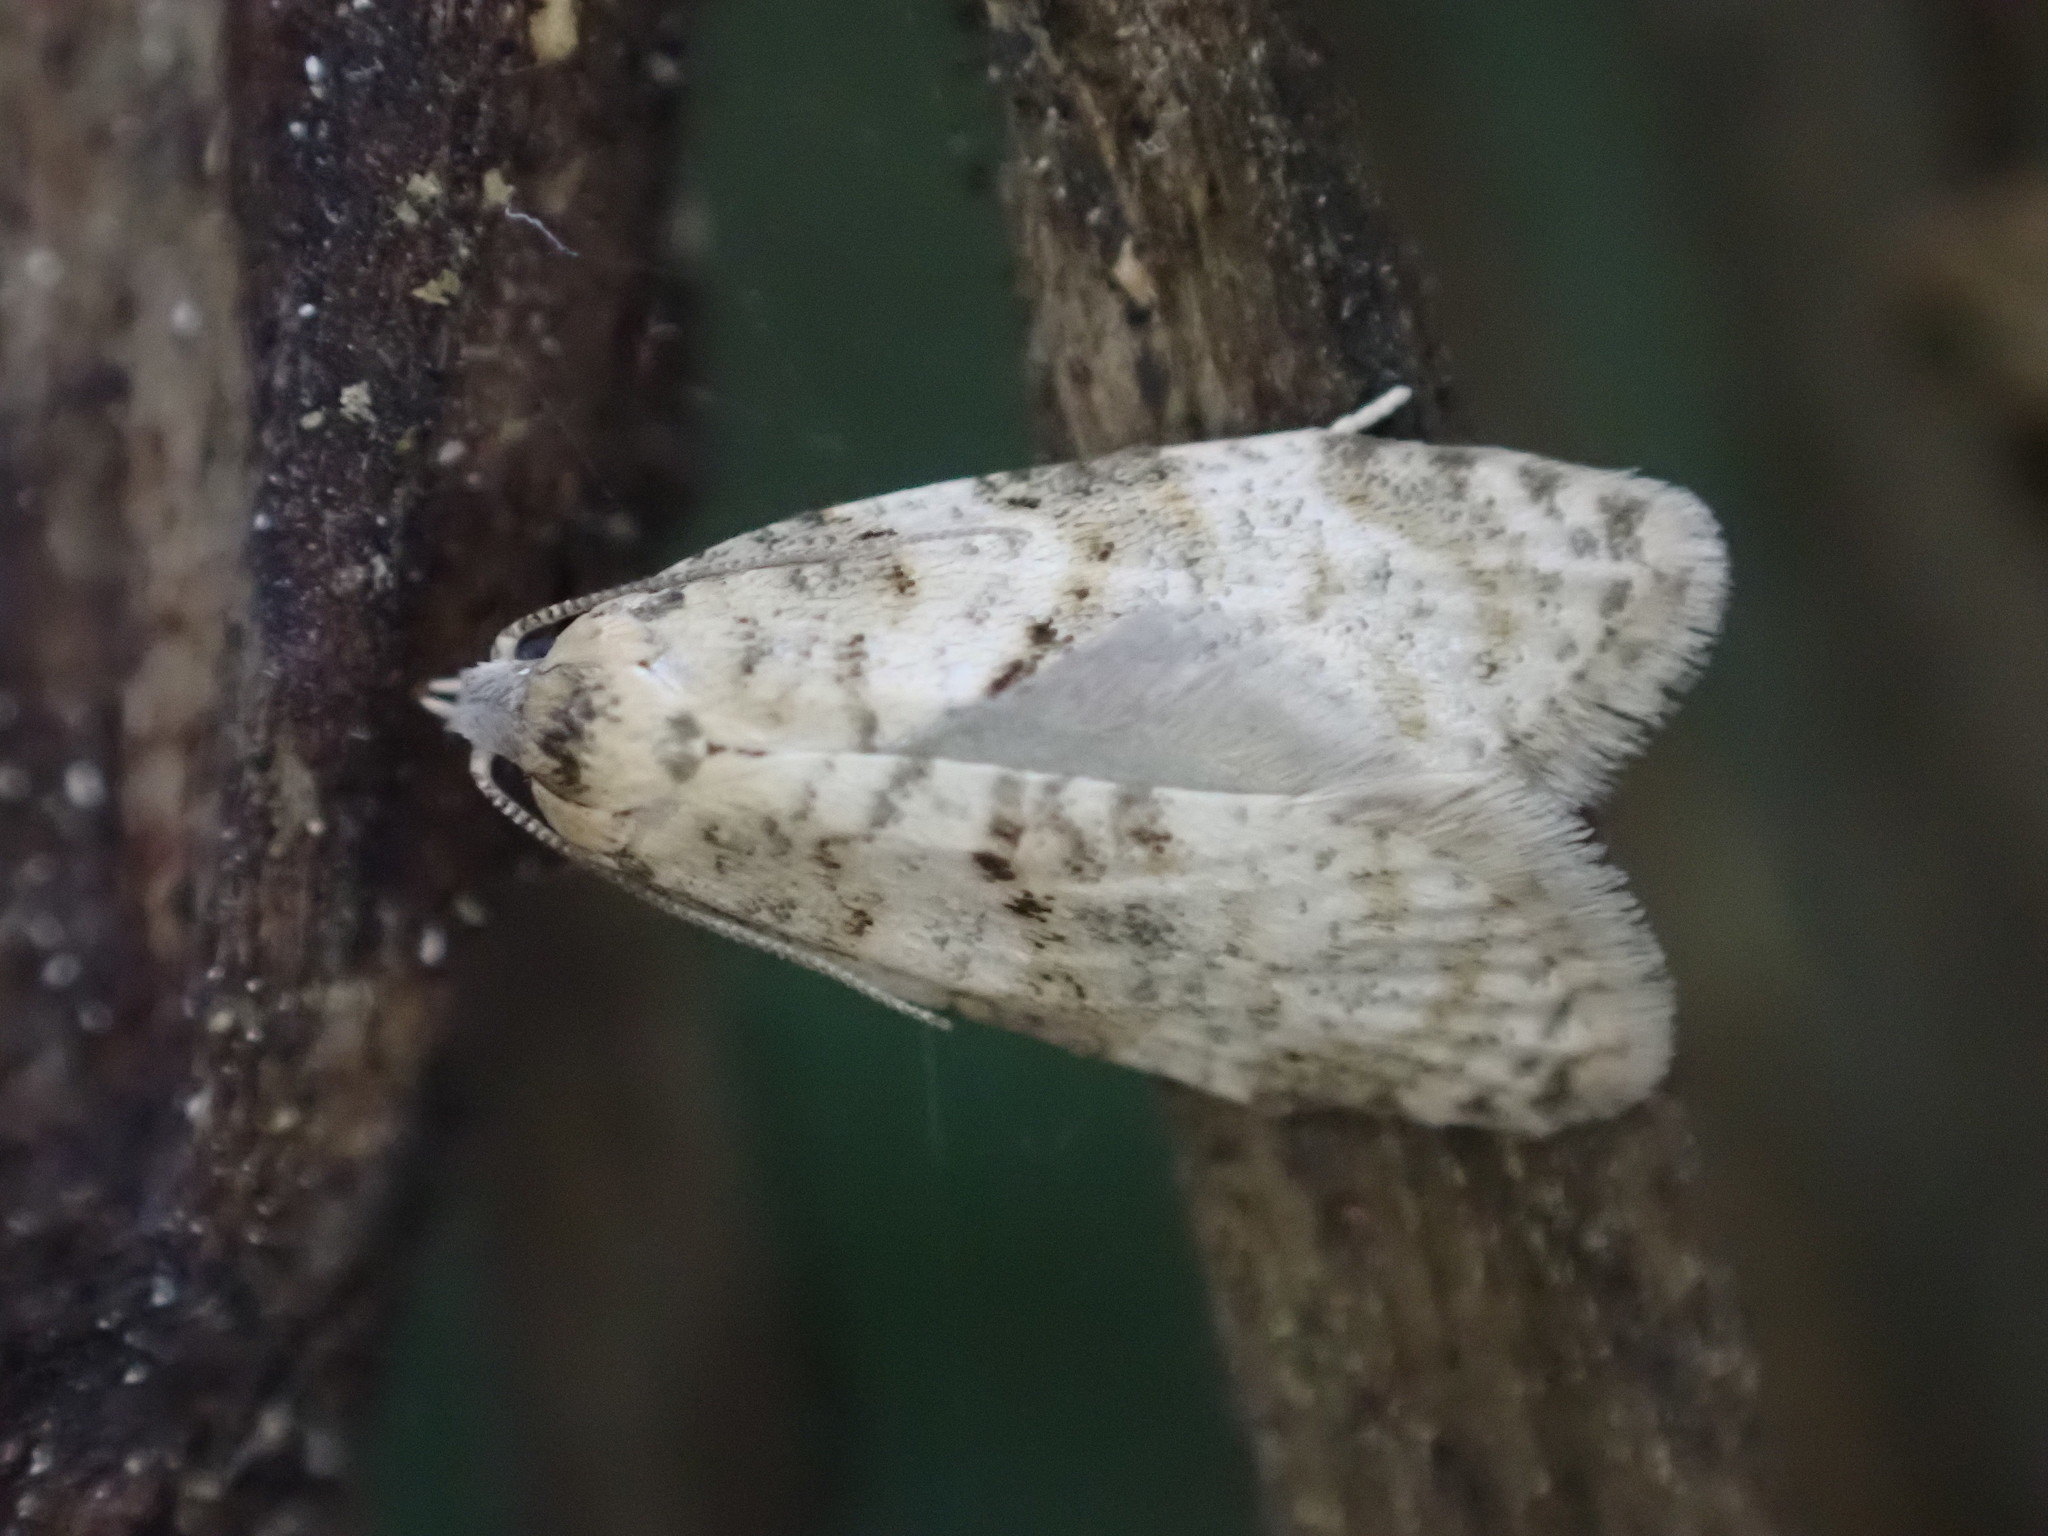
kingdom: Animalia
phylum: Arthropoda
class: Insecta
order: Lepidoptera
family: Tortricidae
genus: Dipterina
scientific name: Dipterina imbriferana
